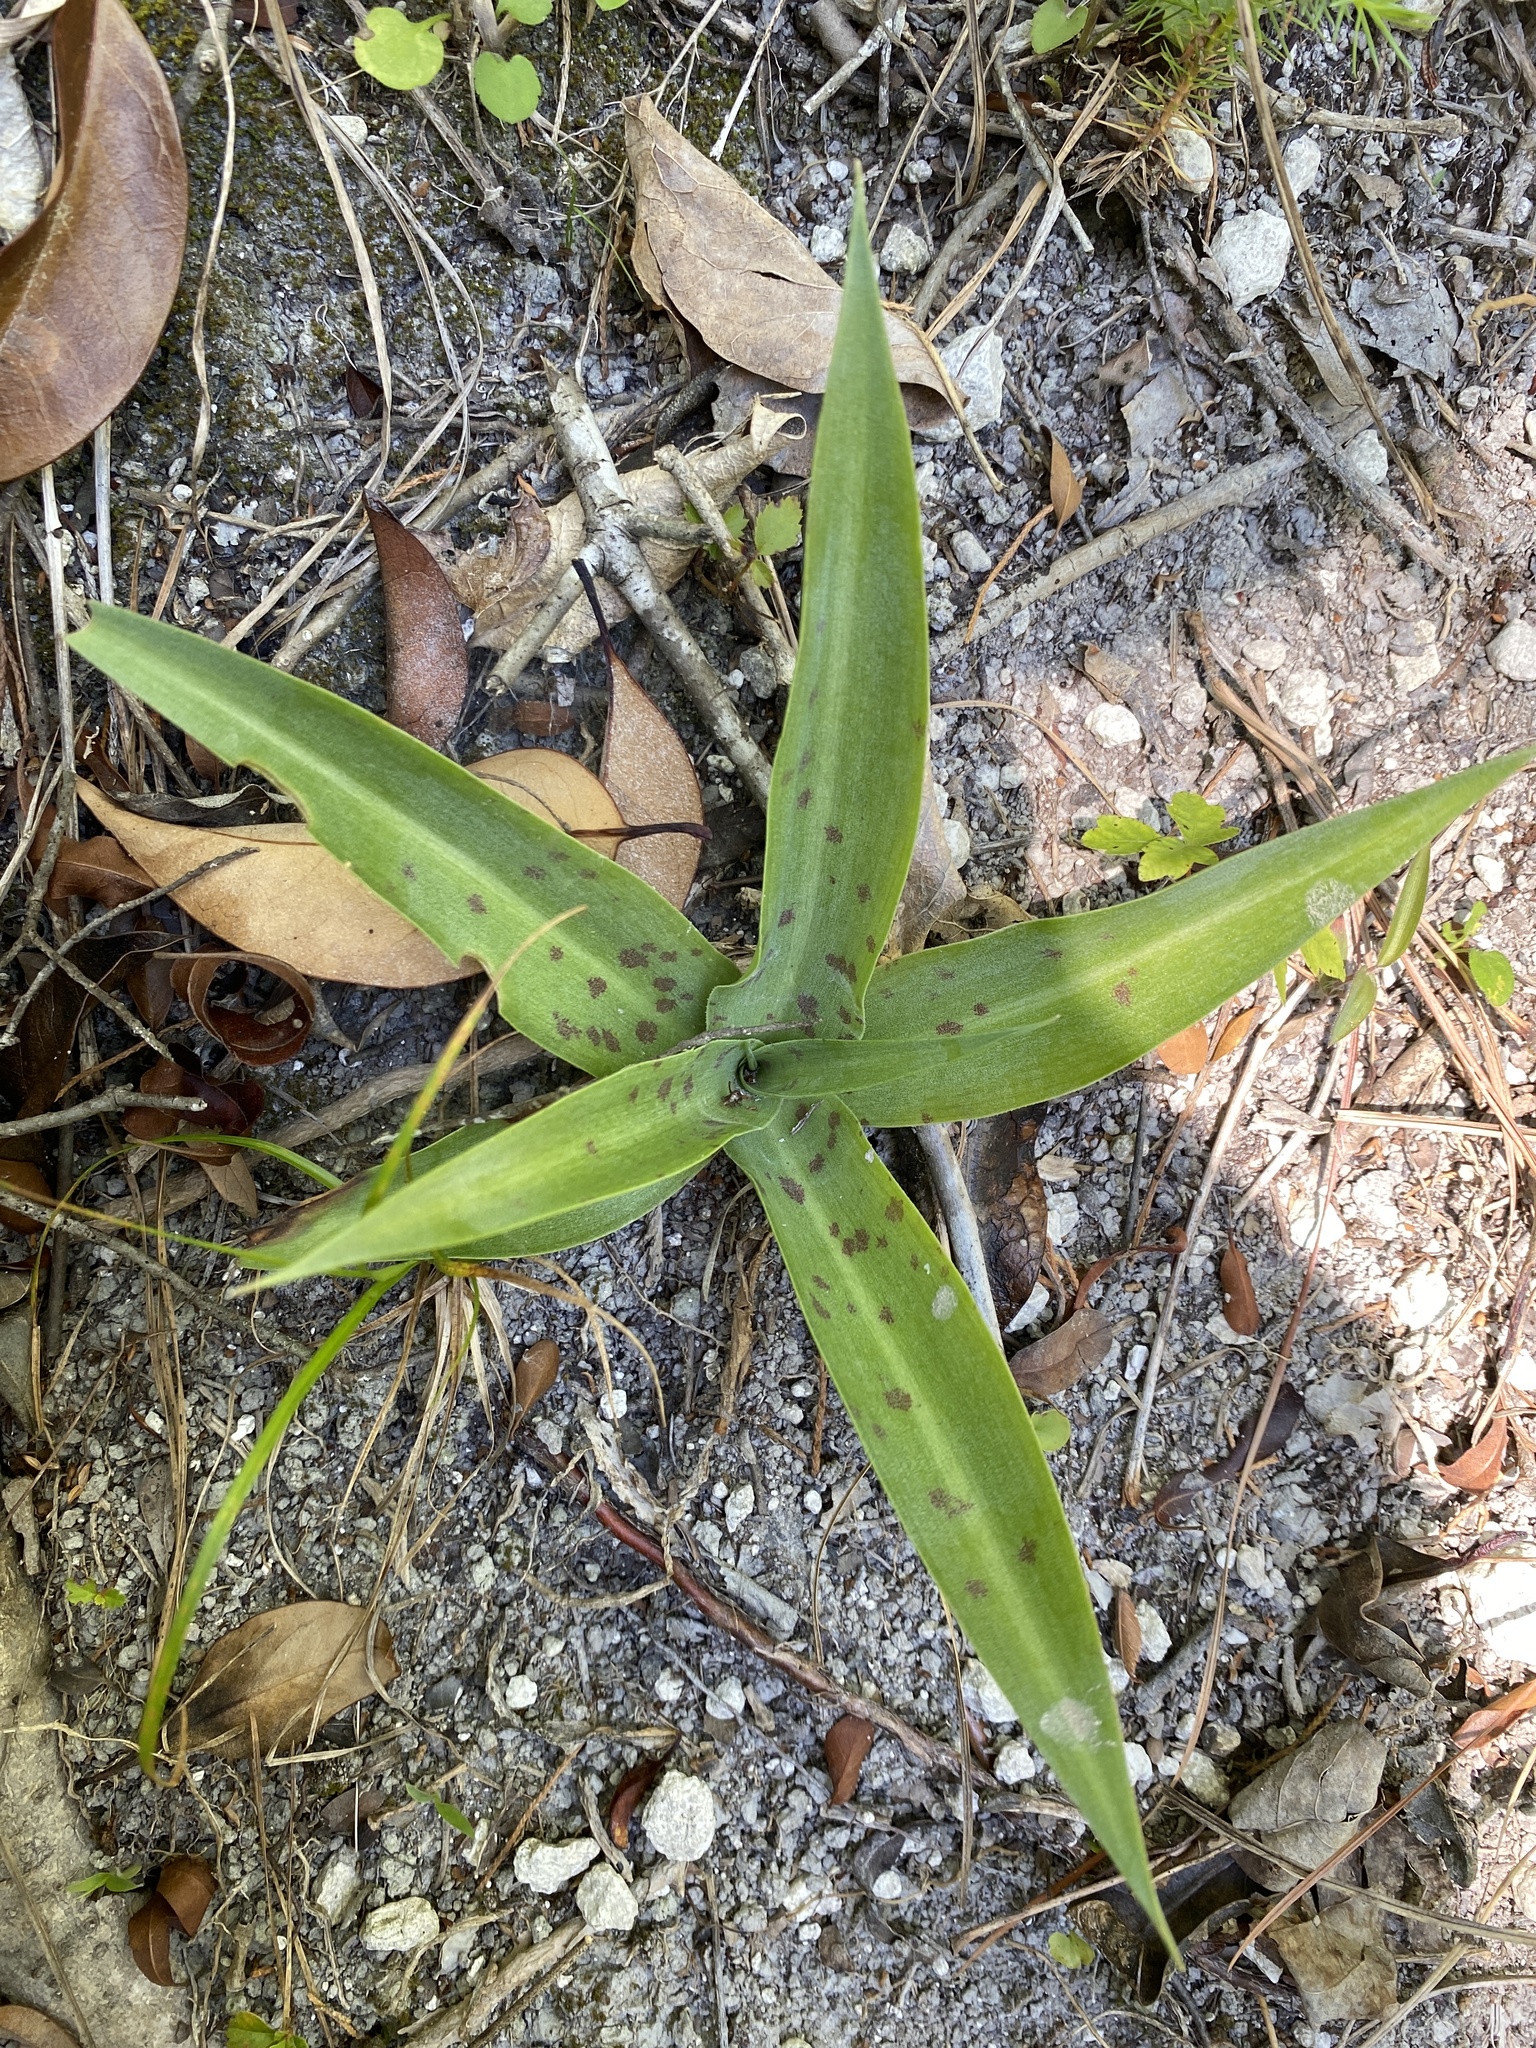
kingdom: Plantae
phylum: Tracheophyta
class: Liliopsida
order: Asparagales
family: Asparagaceae
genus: Agave
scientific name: Agave virginica
